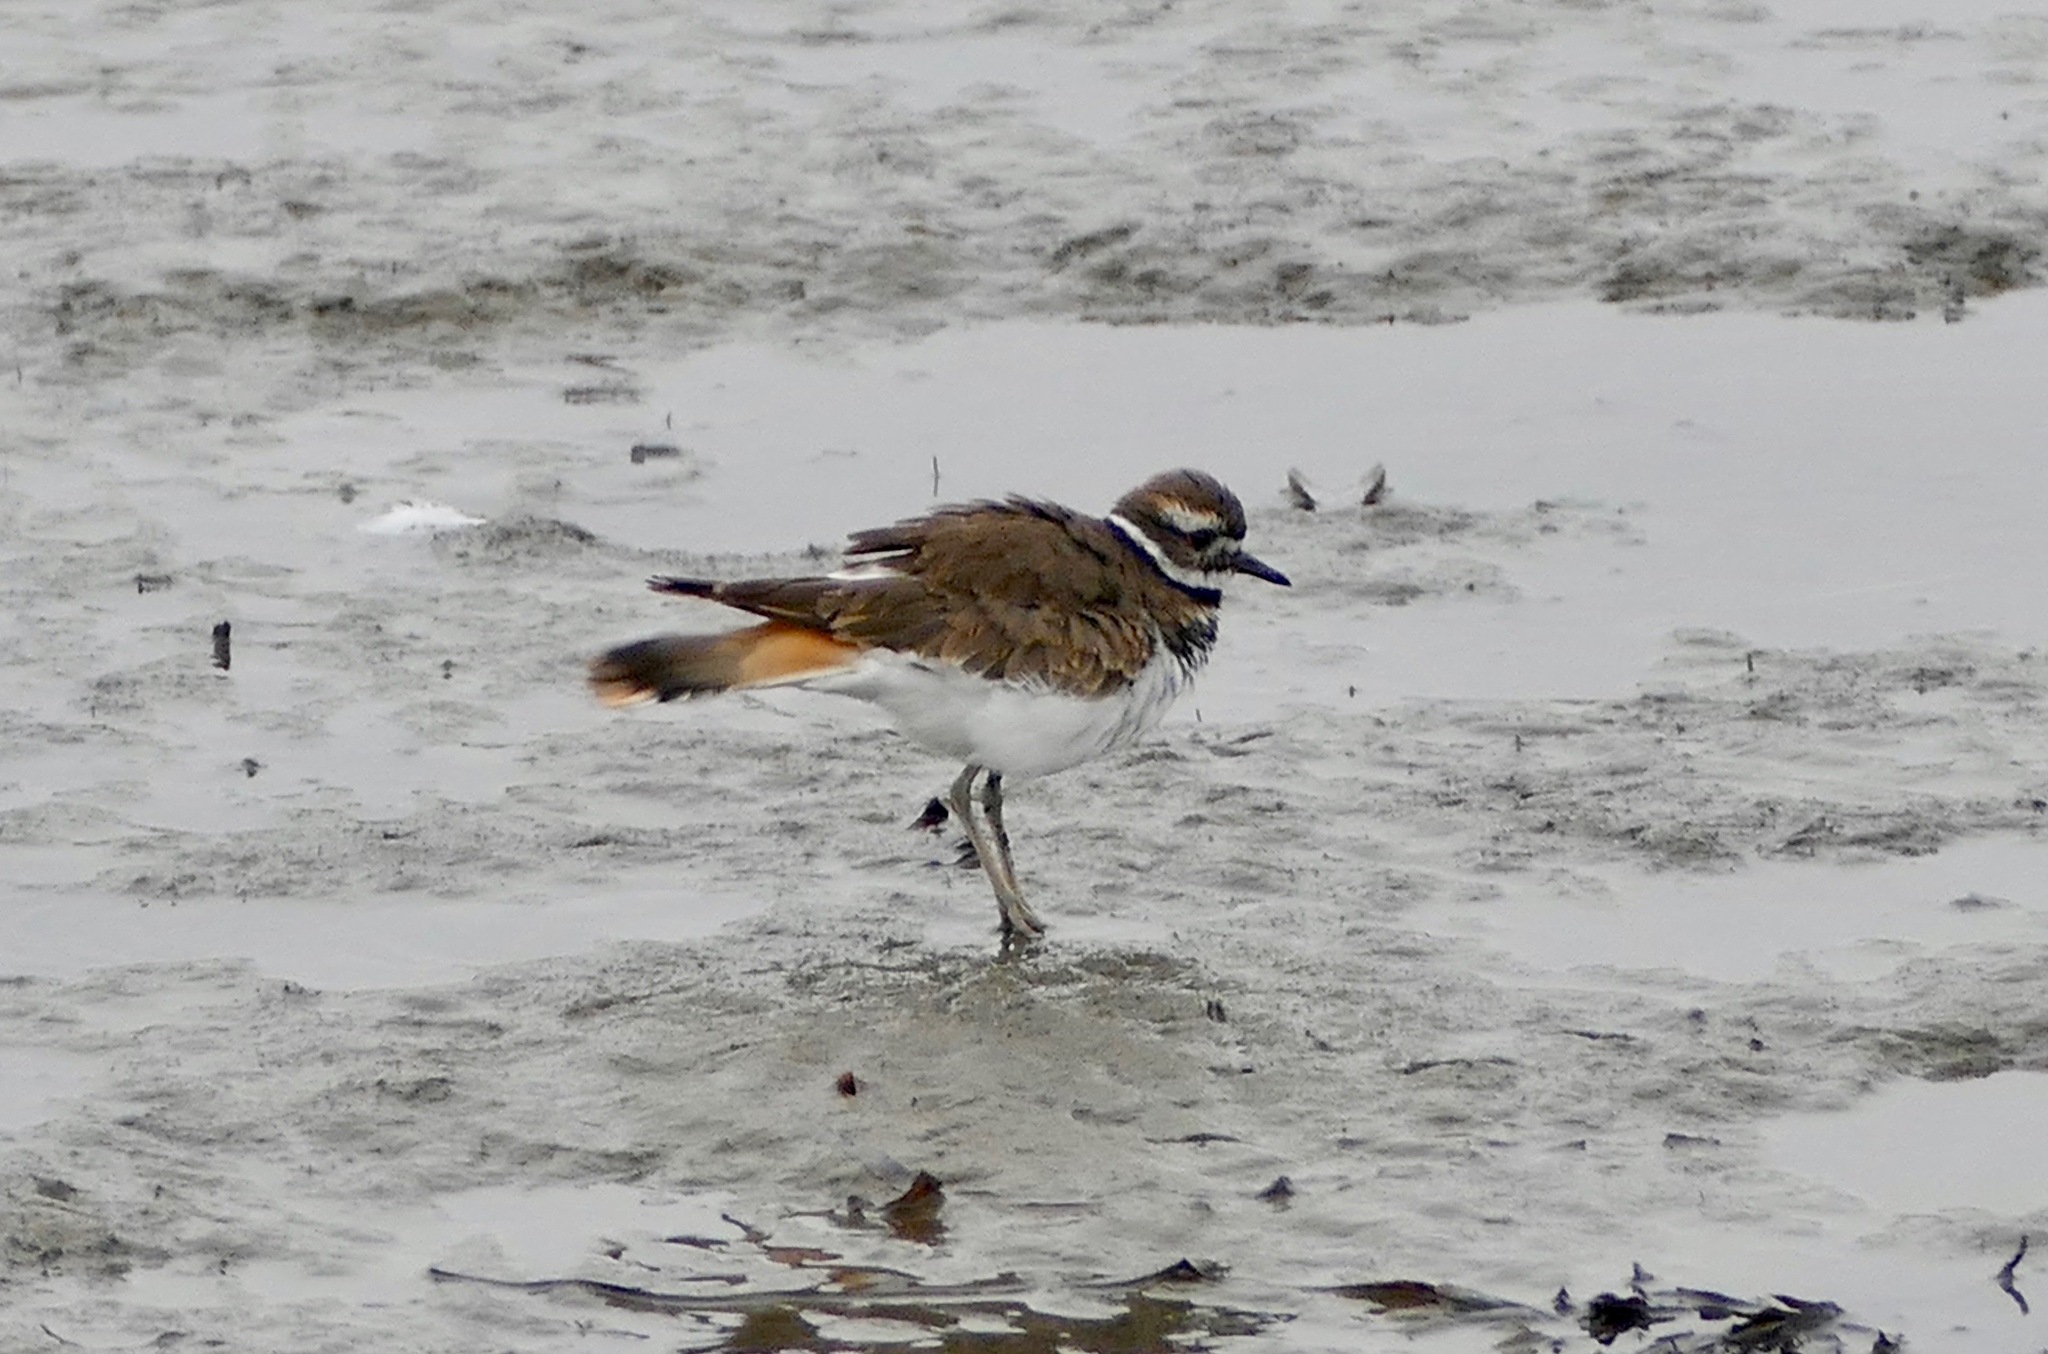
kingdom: Animalia
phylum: Chordata
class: Aves
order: Charadriiformes
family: Charadriidae
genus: Charadrius
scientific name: Charadrius vociferus
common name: Killdeer
